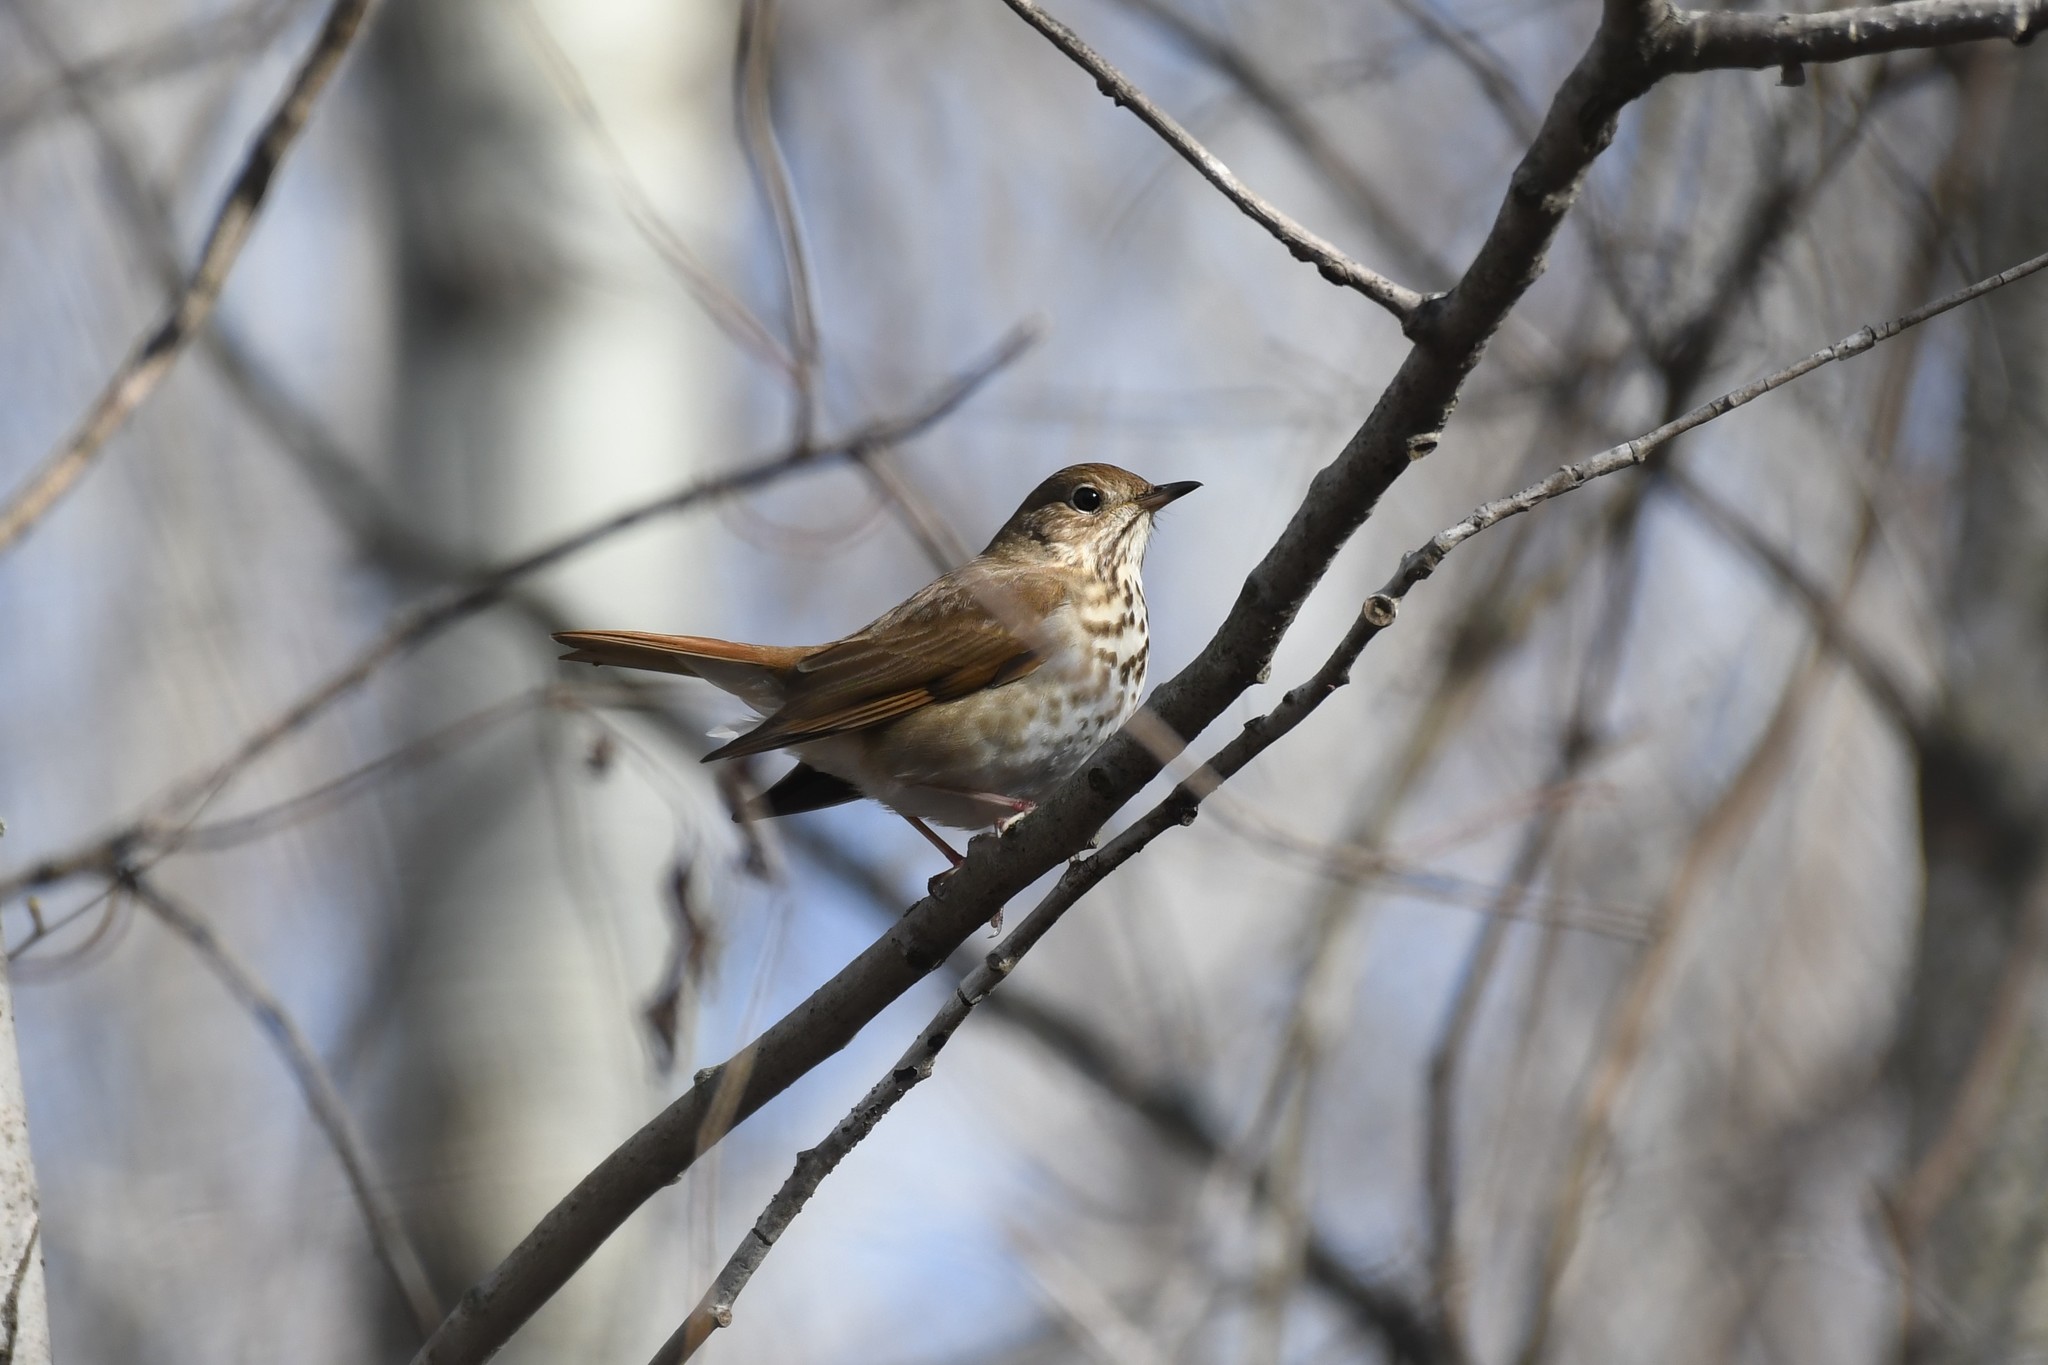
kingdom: Animalia
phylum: Chordata
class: Aves
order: Passeriformes
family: Turdidae
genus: Catharus
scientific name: Catharus guttatus
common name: Hermit thrush
